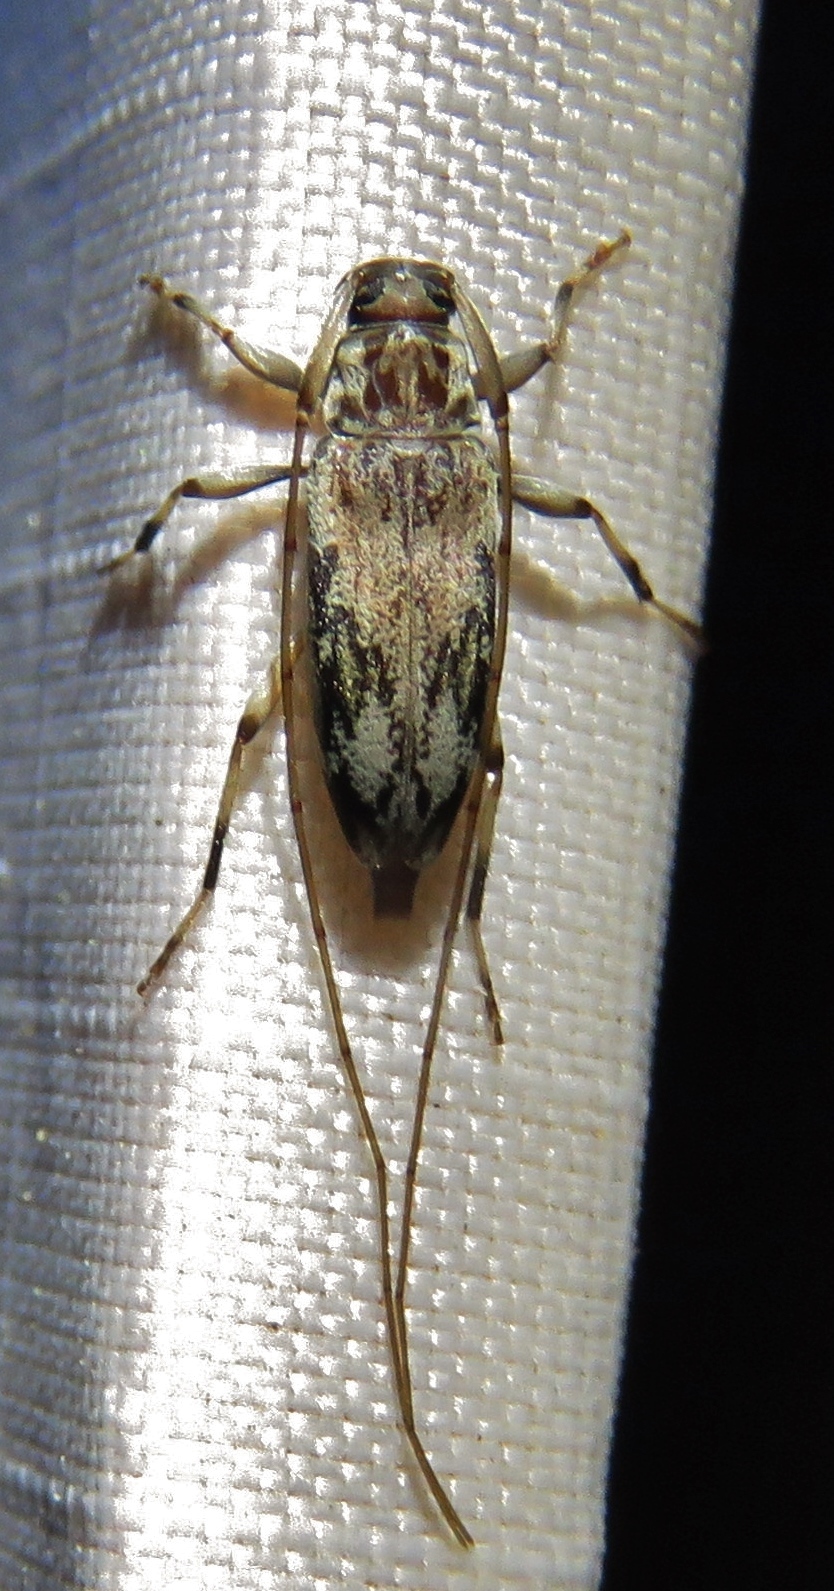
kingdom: Animalia
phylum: Arthropoda
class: Insecta
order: Coleoptera
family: Cerambycidae
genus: Lepturges
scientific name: Lepturges angulatus
